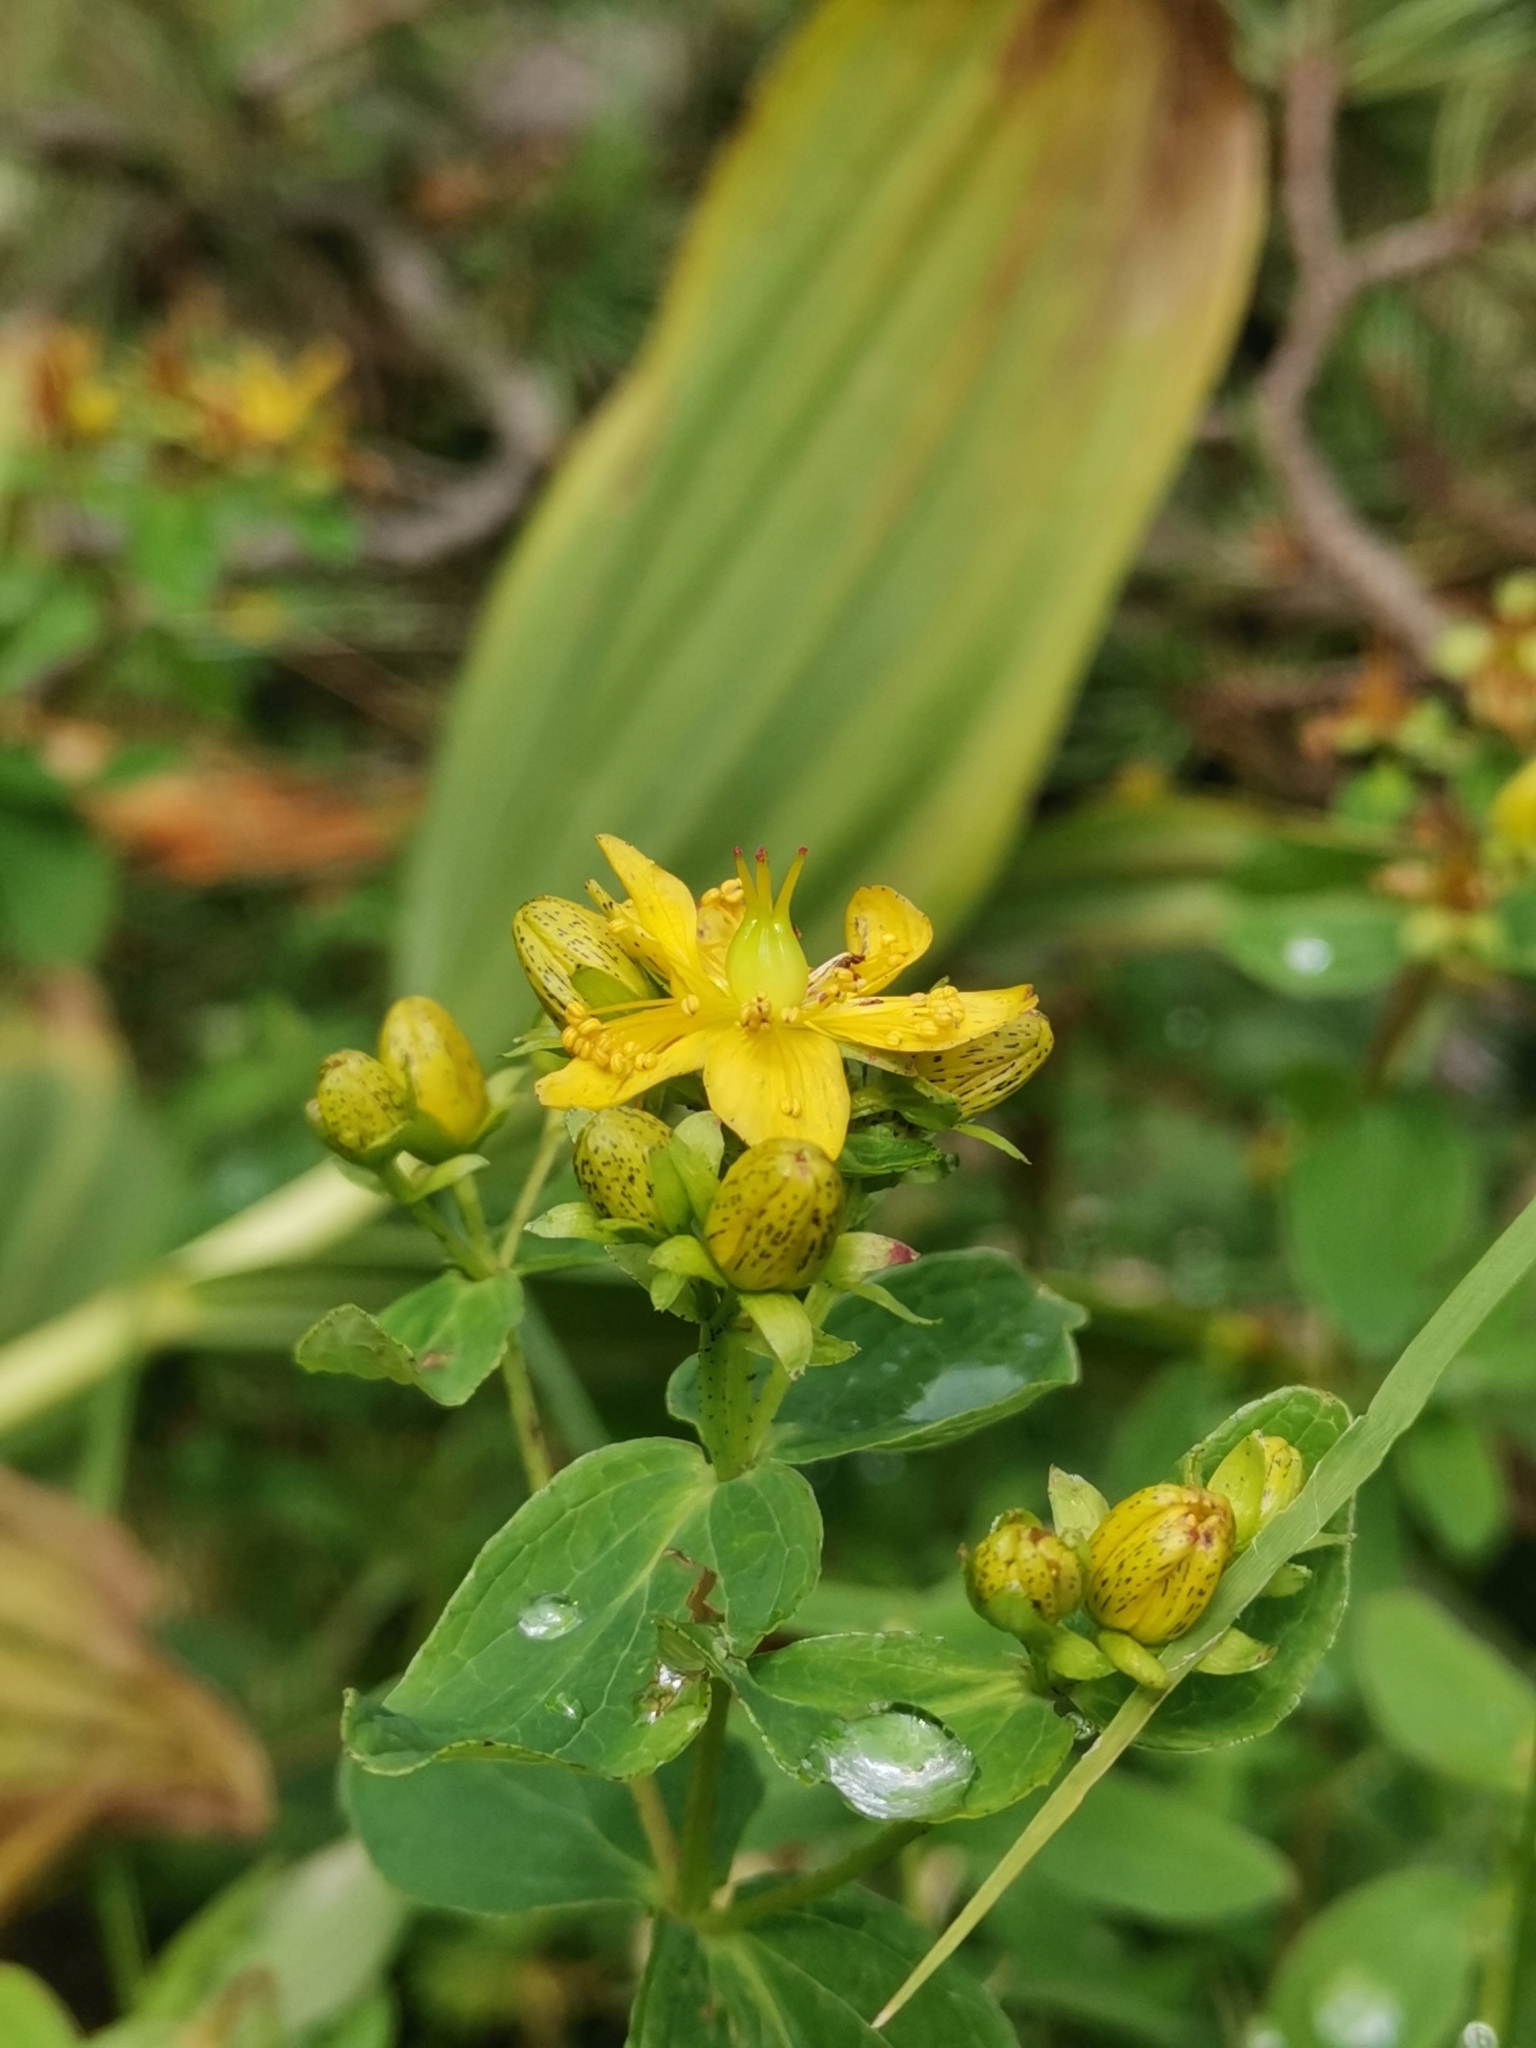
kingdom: Plantae
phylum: Tracheophyta
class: Magnoliopsida
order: Malpighiales
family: Hypericaceae
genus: Hypericum
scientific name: Hypericum maculatum
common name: Imperforate st. john's-wort
